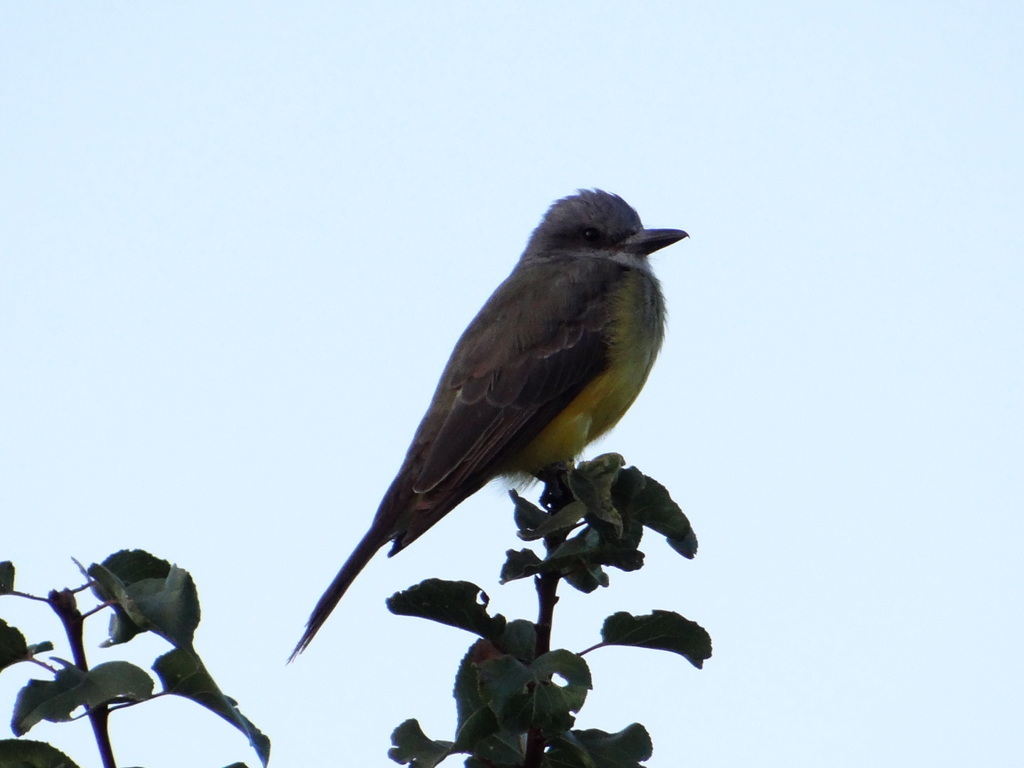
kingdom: Animalia
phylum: Chordata
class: Aves
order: Passeriformes
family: Tyrannidae
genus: Tyrannus
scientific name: Tyrannus melancholicus
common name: Tropical kingbird
